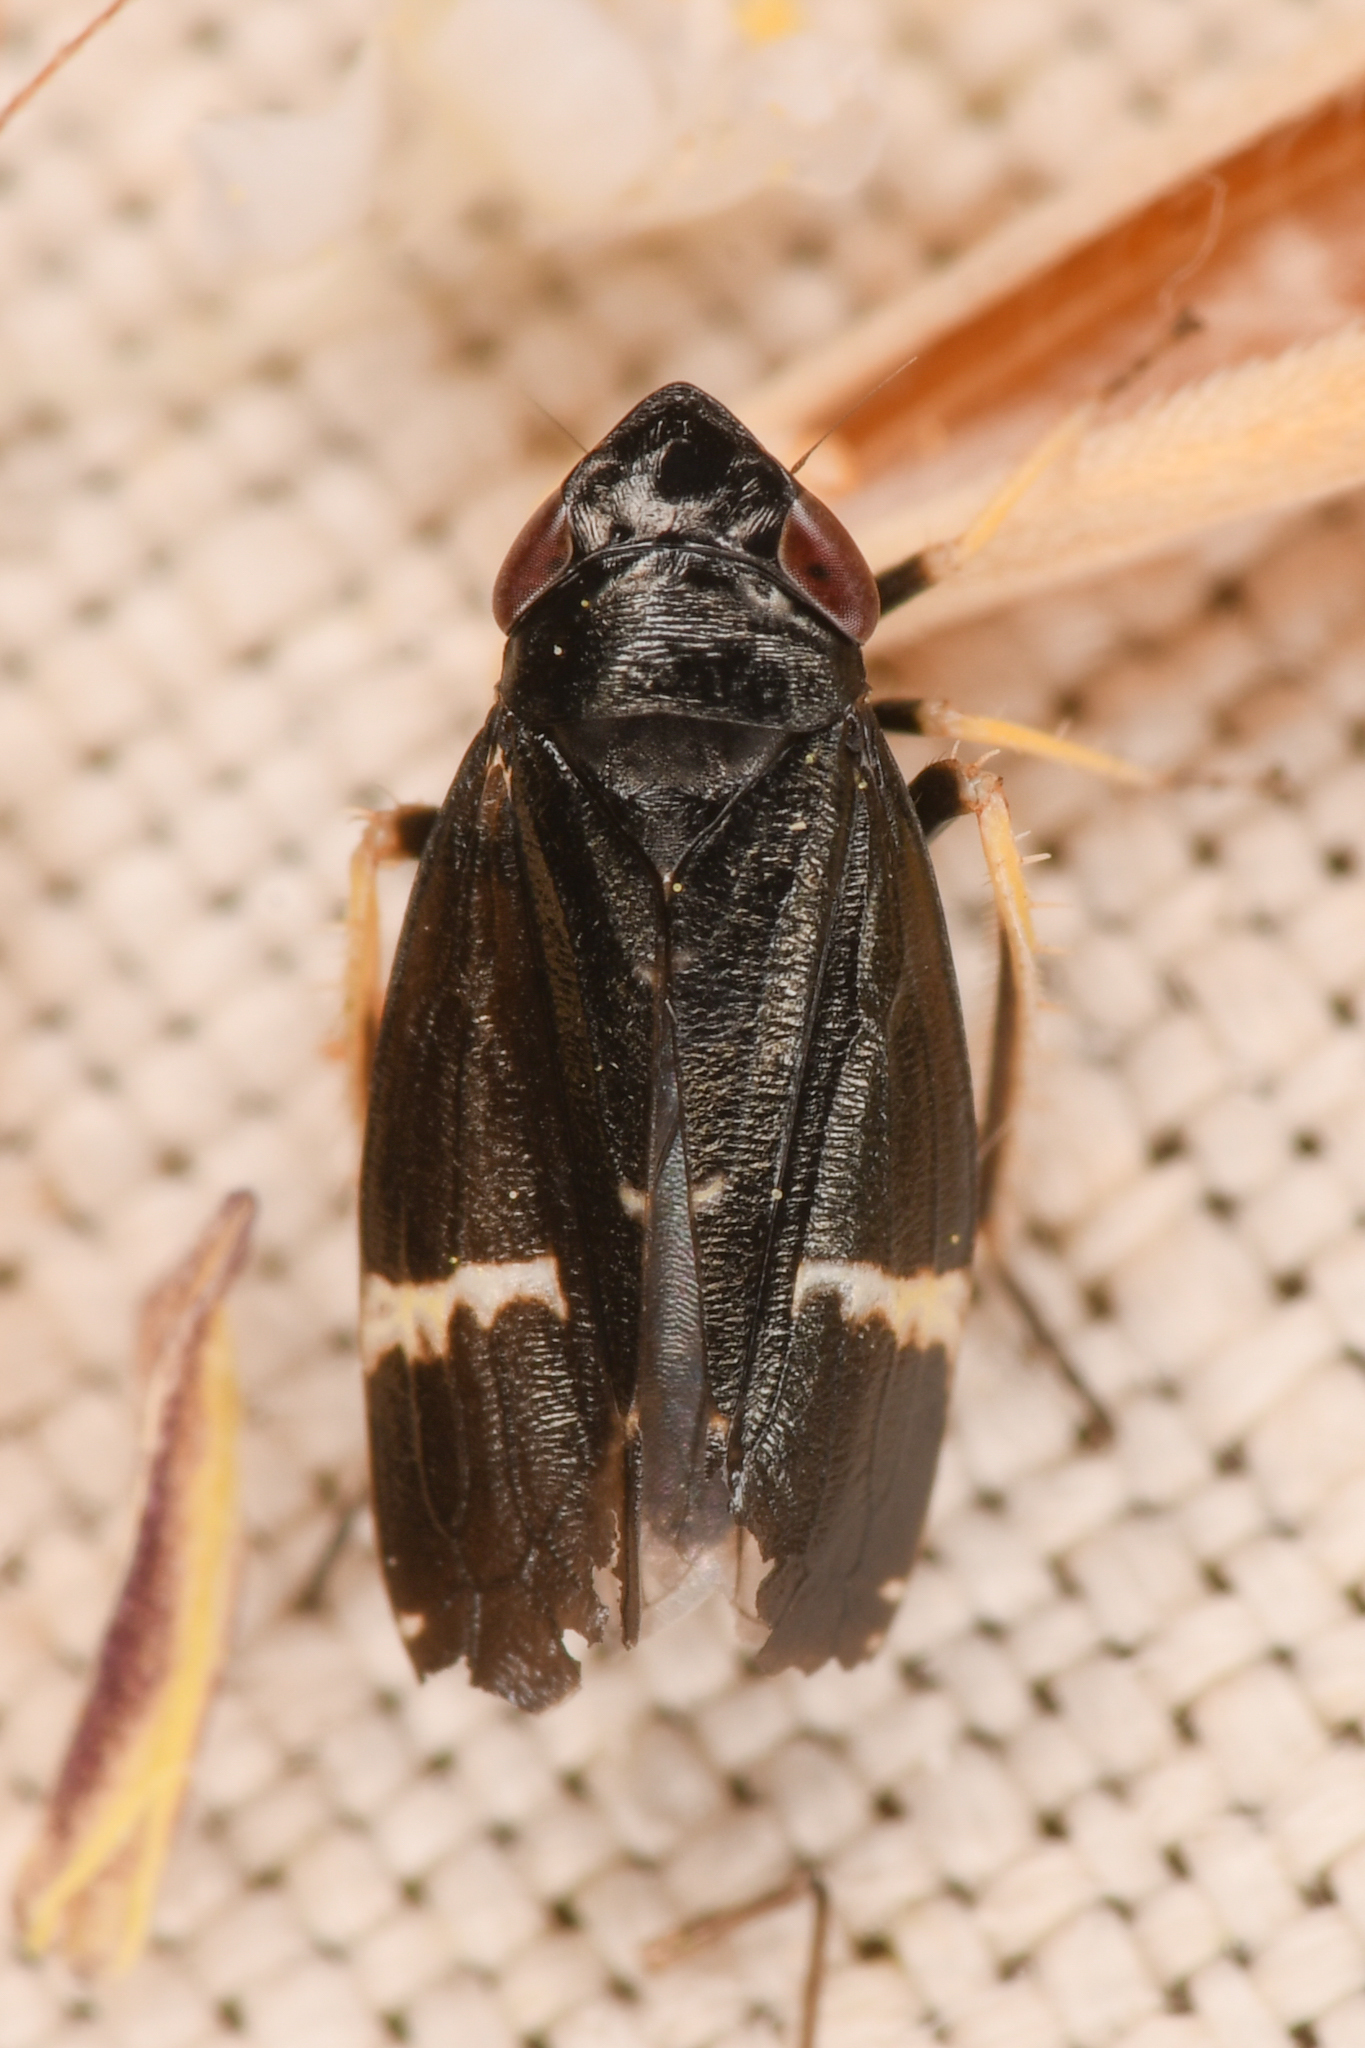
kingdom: Animalia
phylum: Arthropoda
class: Insecta
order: Hemiptera
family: Cicadellidae
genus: Cochlorhinus
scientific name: Cochlorhinus stygicus
